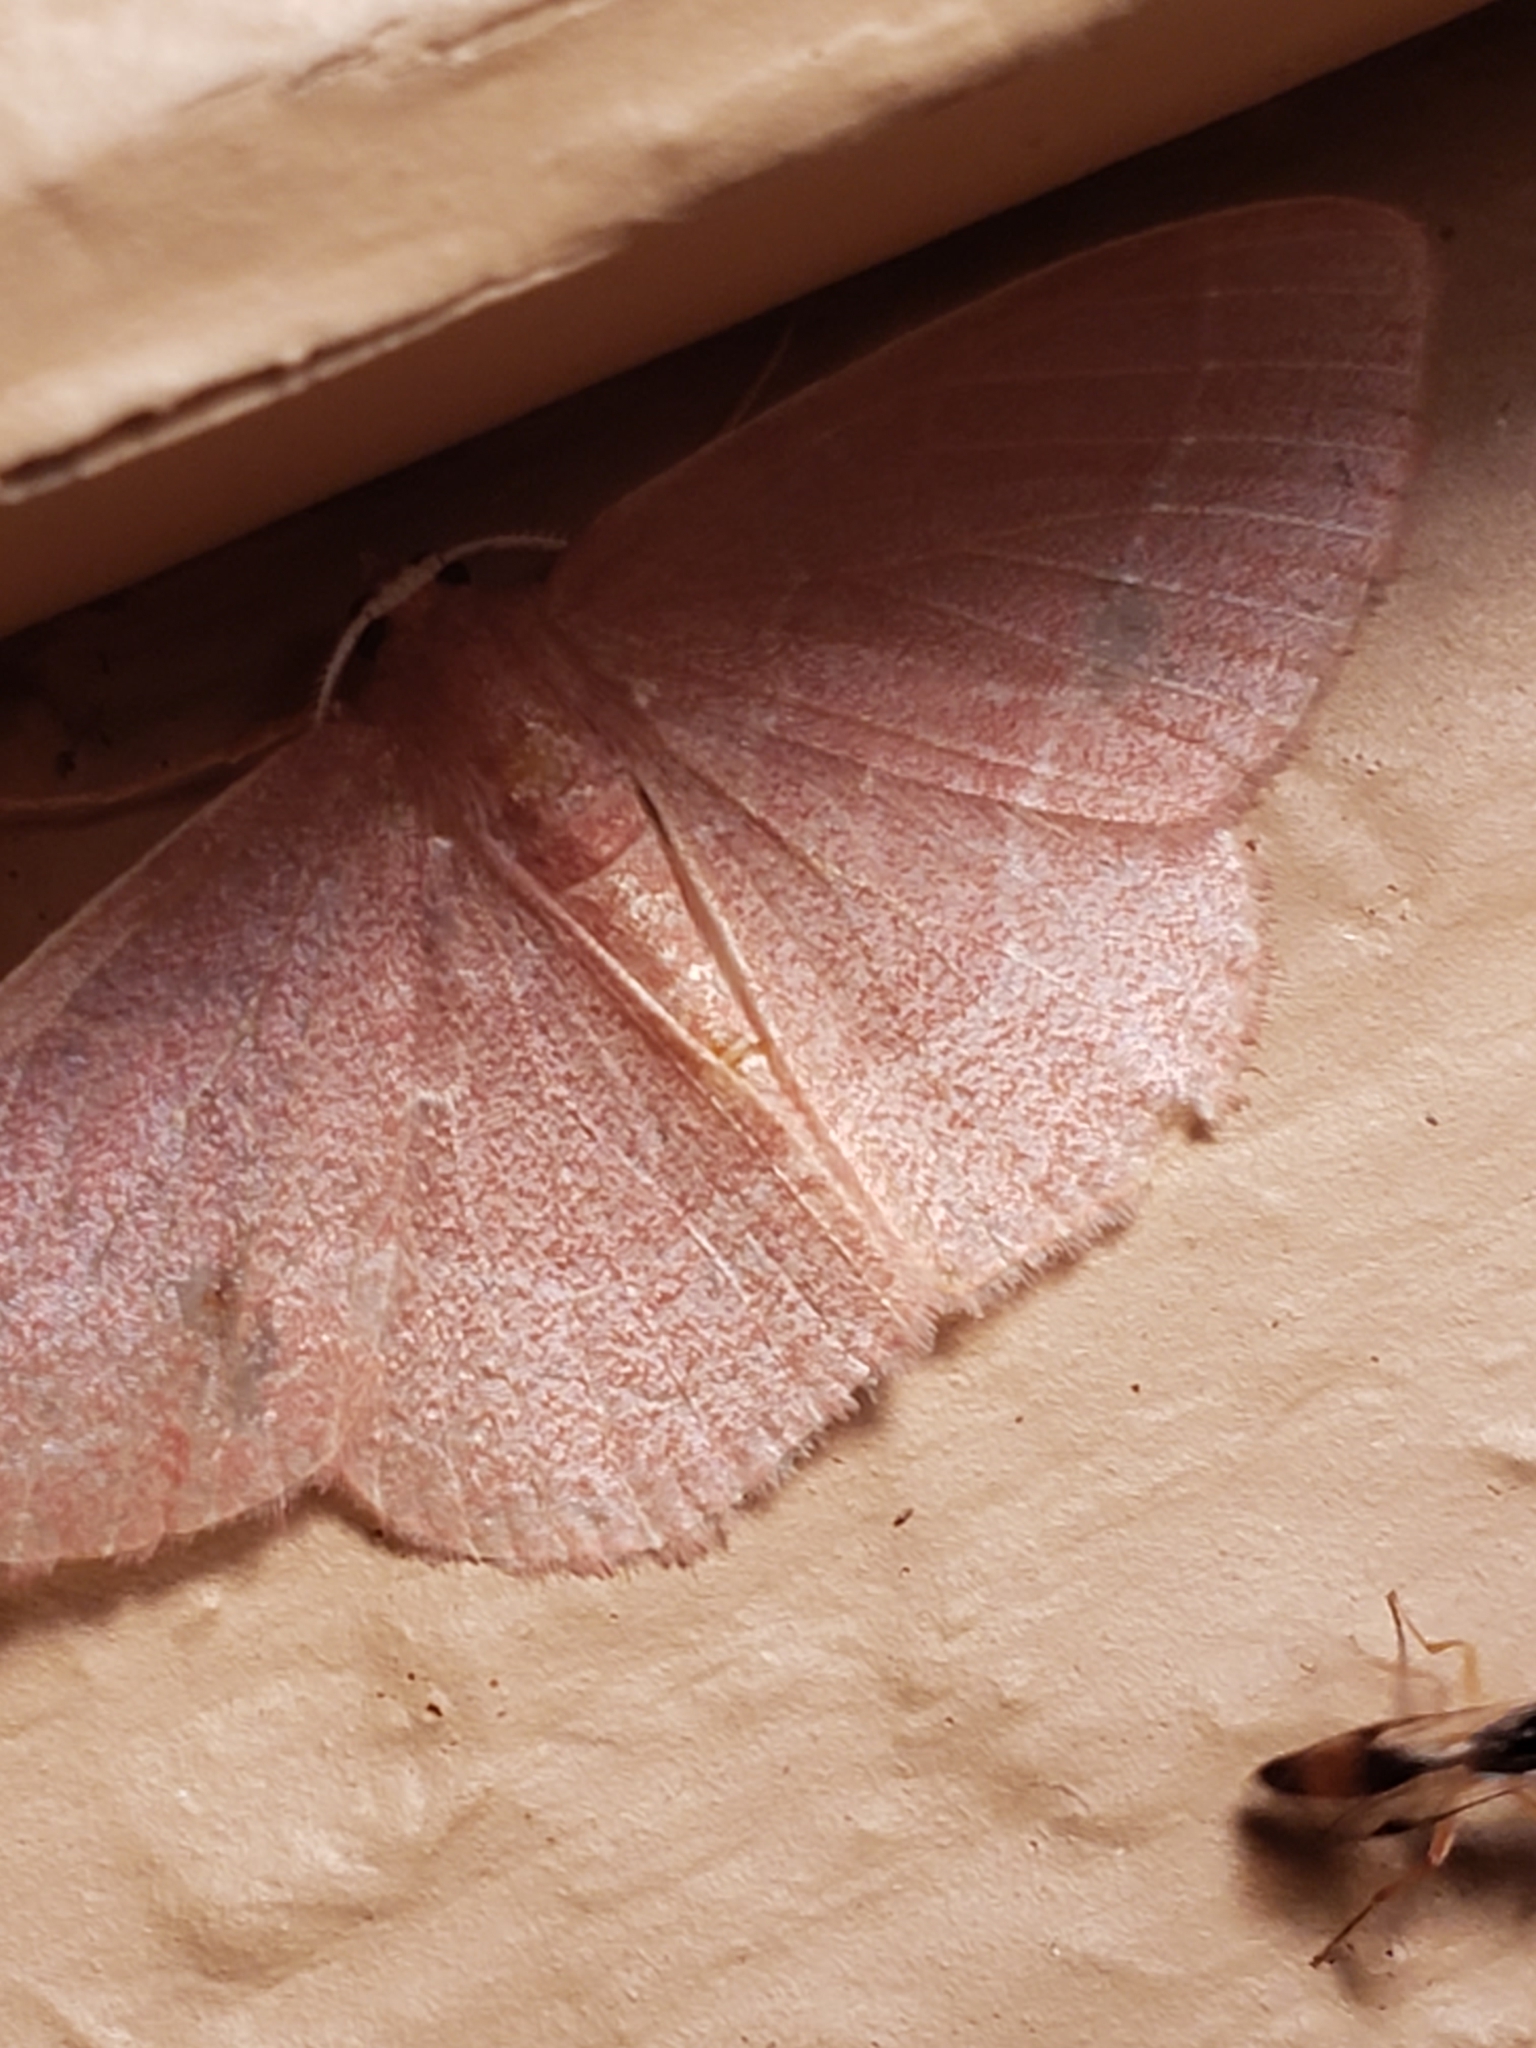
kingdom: Animalia
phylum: Arthropoda
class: Insecta
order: Lepidoptera
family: Geometridae
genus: Nemoria
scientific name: Nemoria bistriaria
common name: Red-fringed emerald
